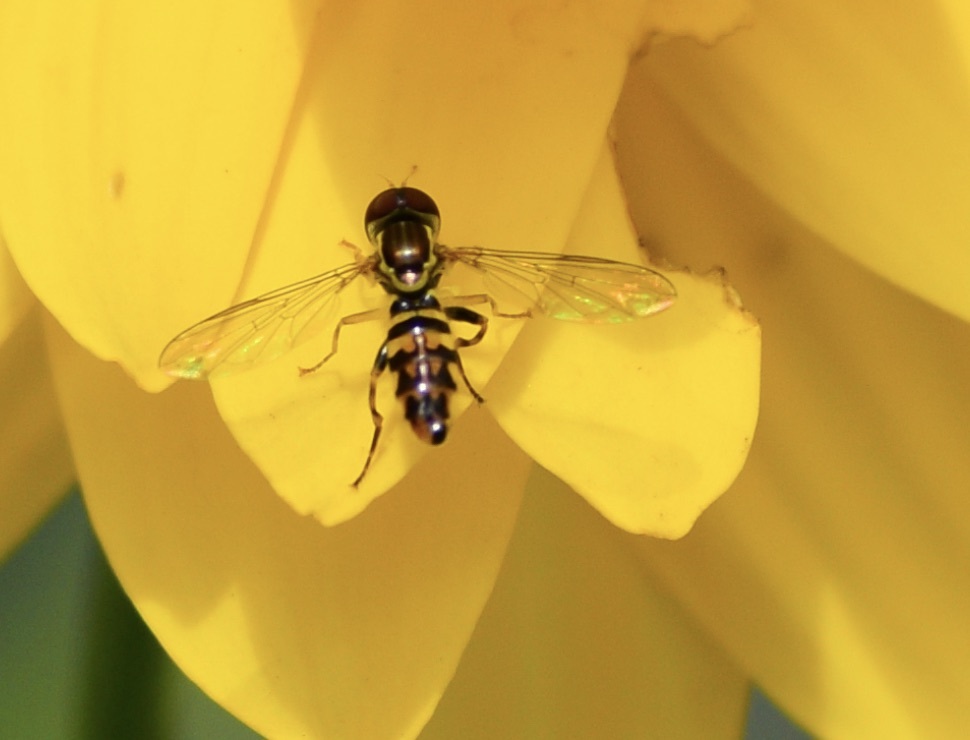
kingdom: Animalia
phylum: Arthropoda
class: Insecta
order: Diptera
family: Syrphidae
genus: Toxomerus
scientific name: Toxomerus geminatus
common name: Eastern calligrapher
